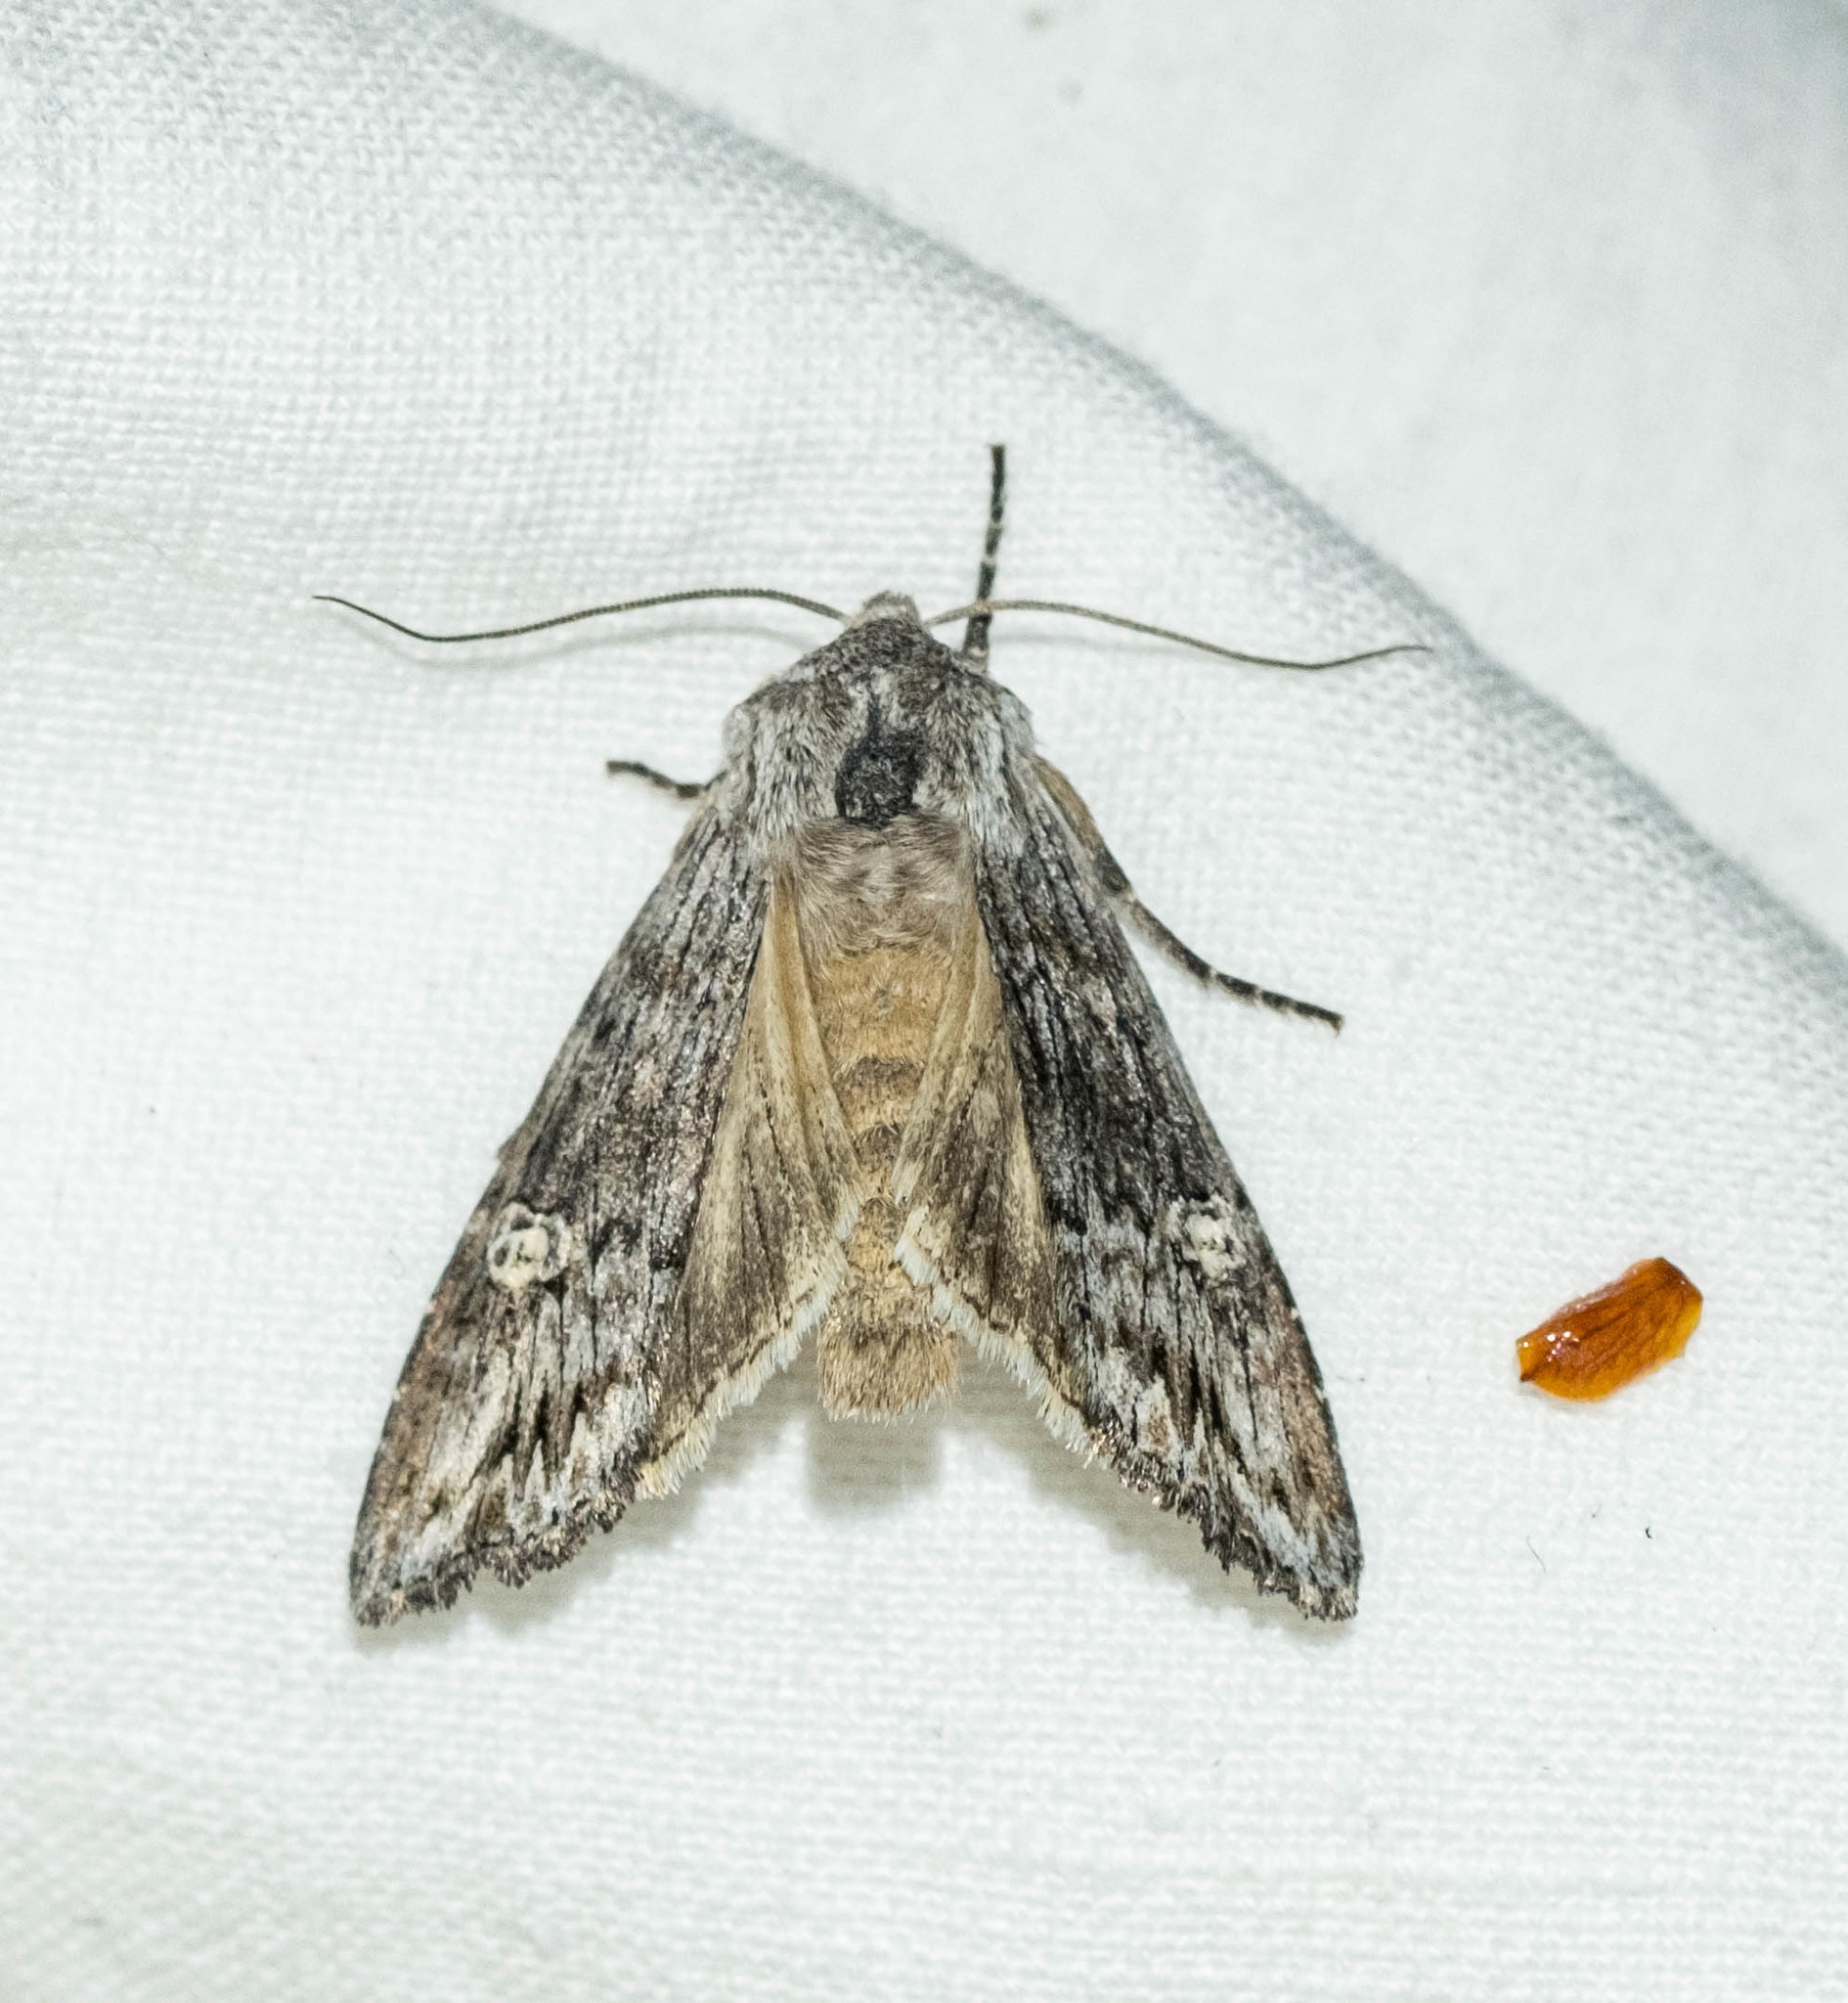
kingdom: Animalia
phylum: Arthropoda
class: Insecta
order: Lepidoptera
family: Noctuidae
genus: Xylena
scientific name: Xylena solidaginis
